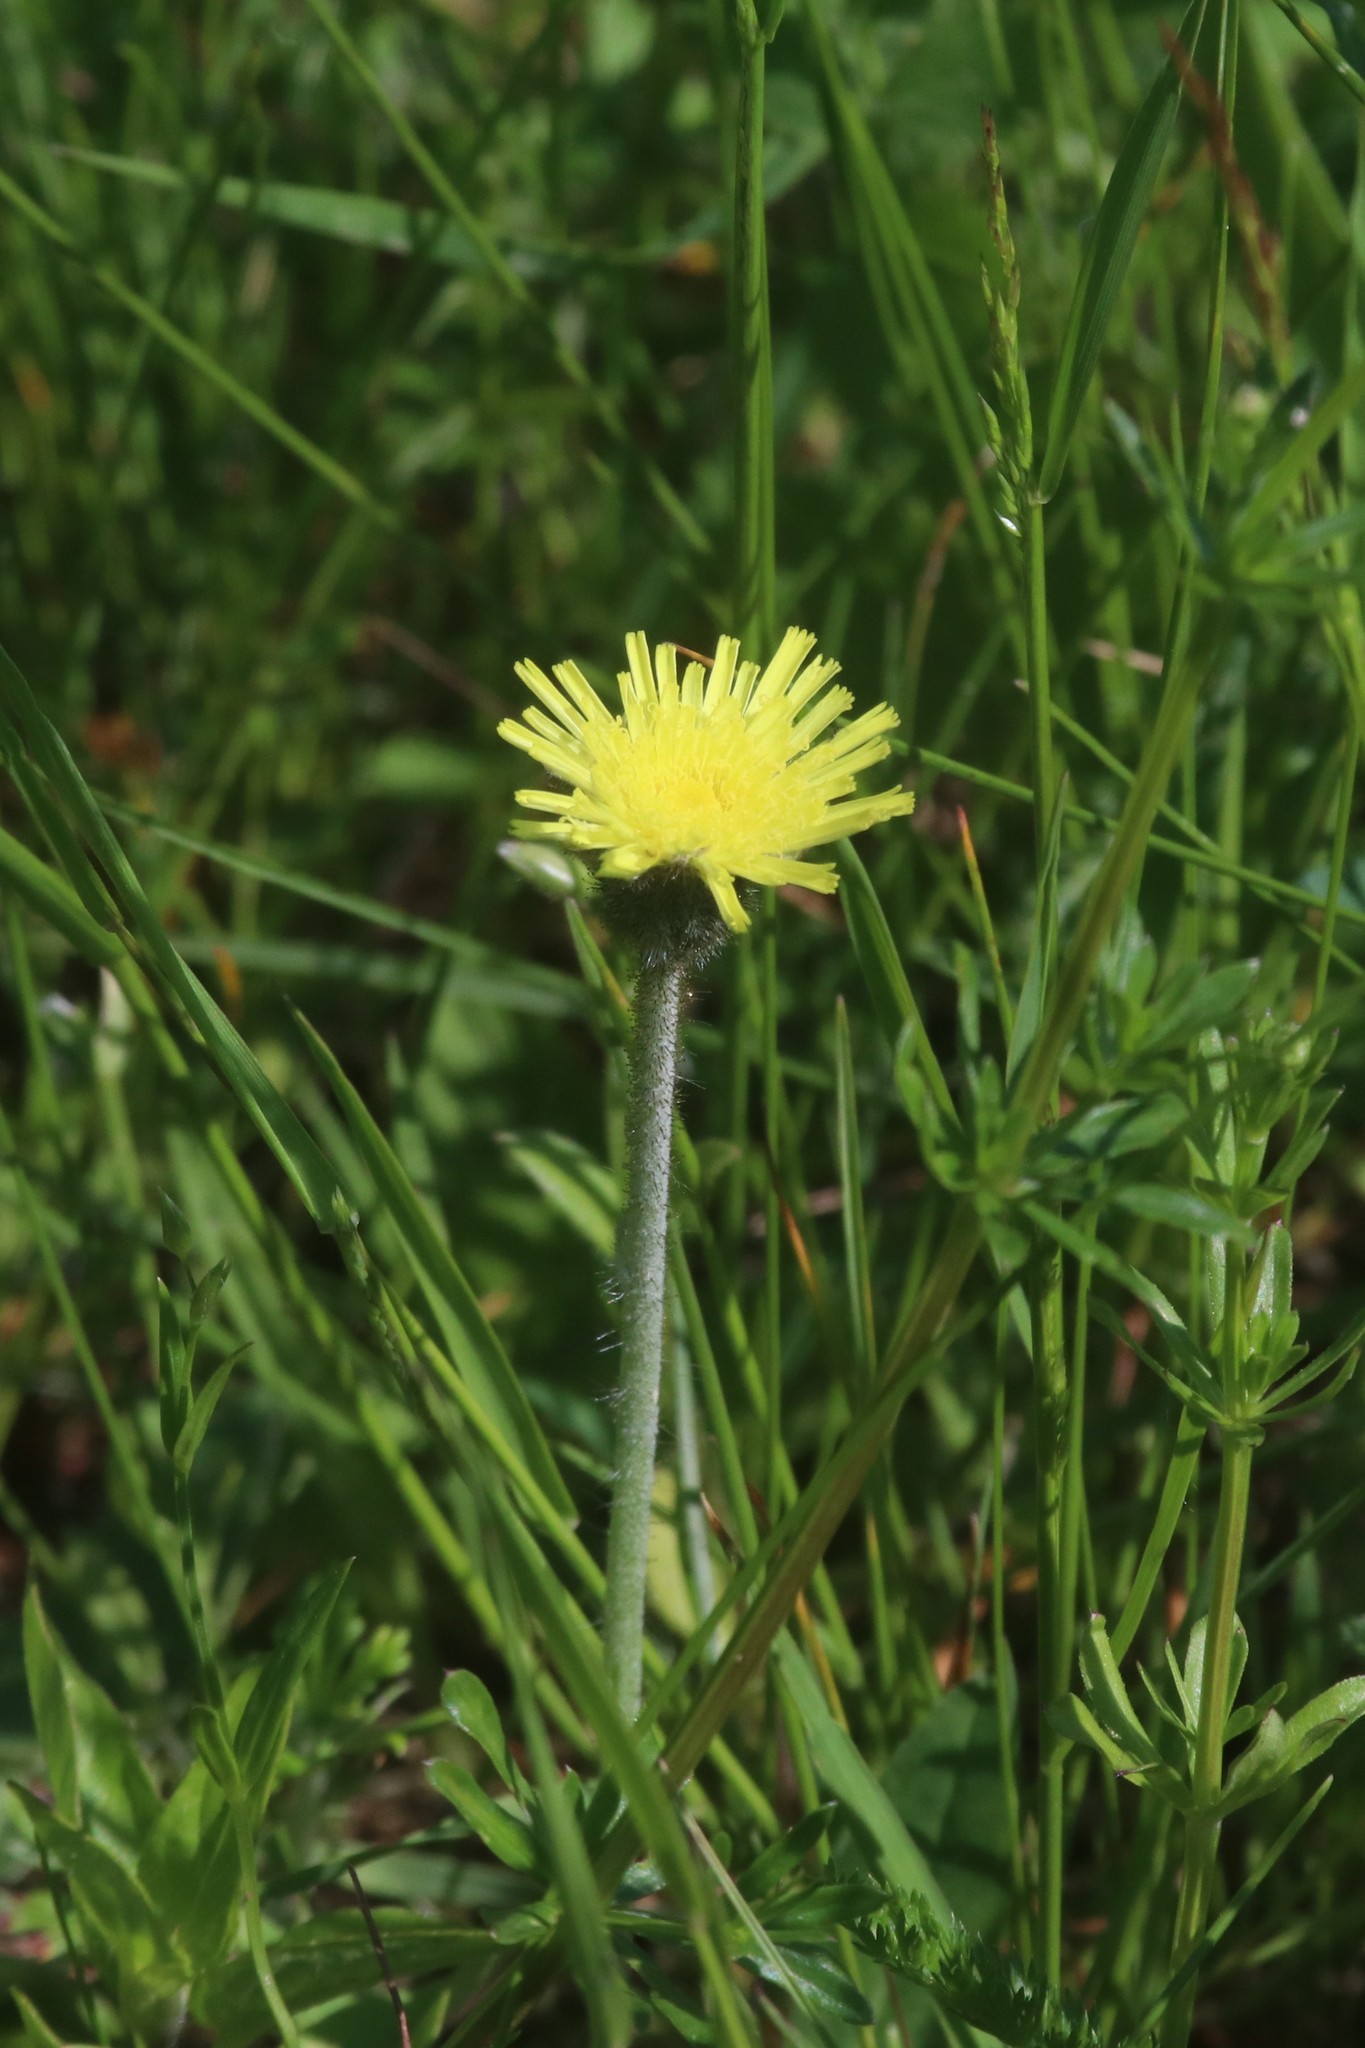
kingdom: Plantae
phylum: Tracheophyta
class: Magnoliopsida
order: Asterales
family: Asteraceae
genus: Pilosella
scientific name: Pilosella officinarum
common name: Mouse-ear hawkweed
